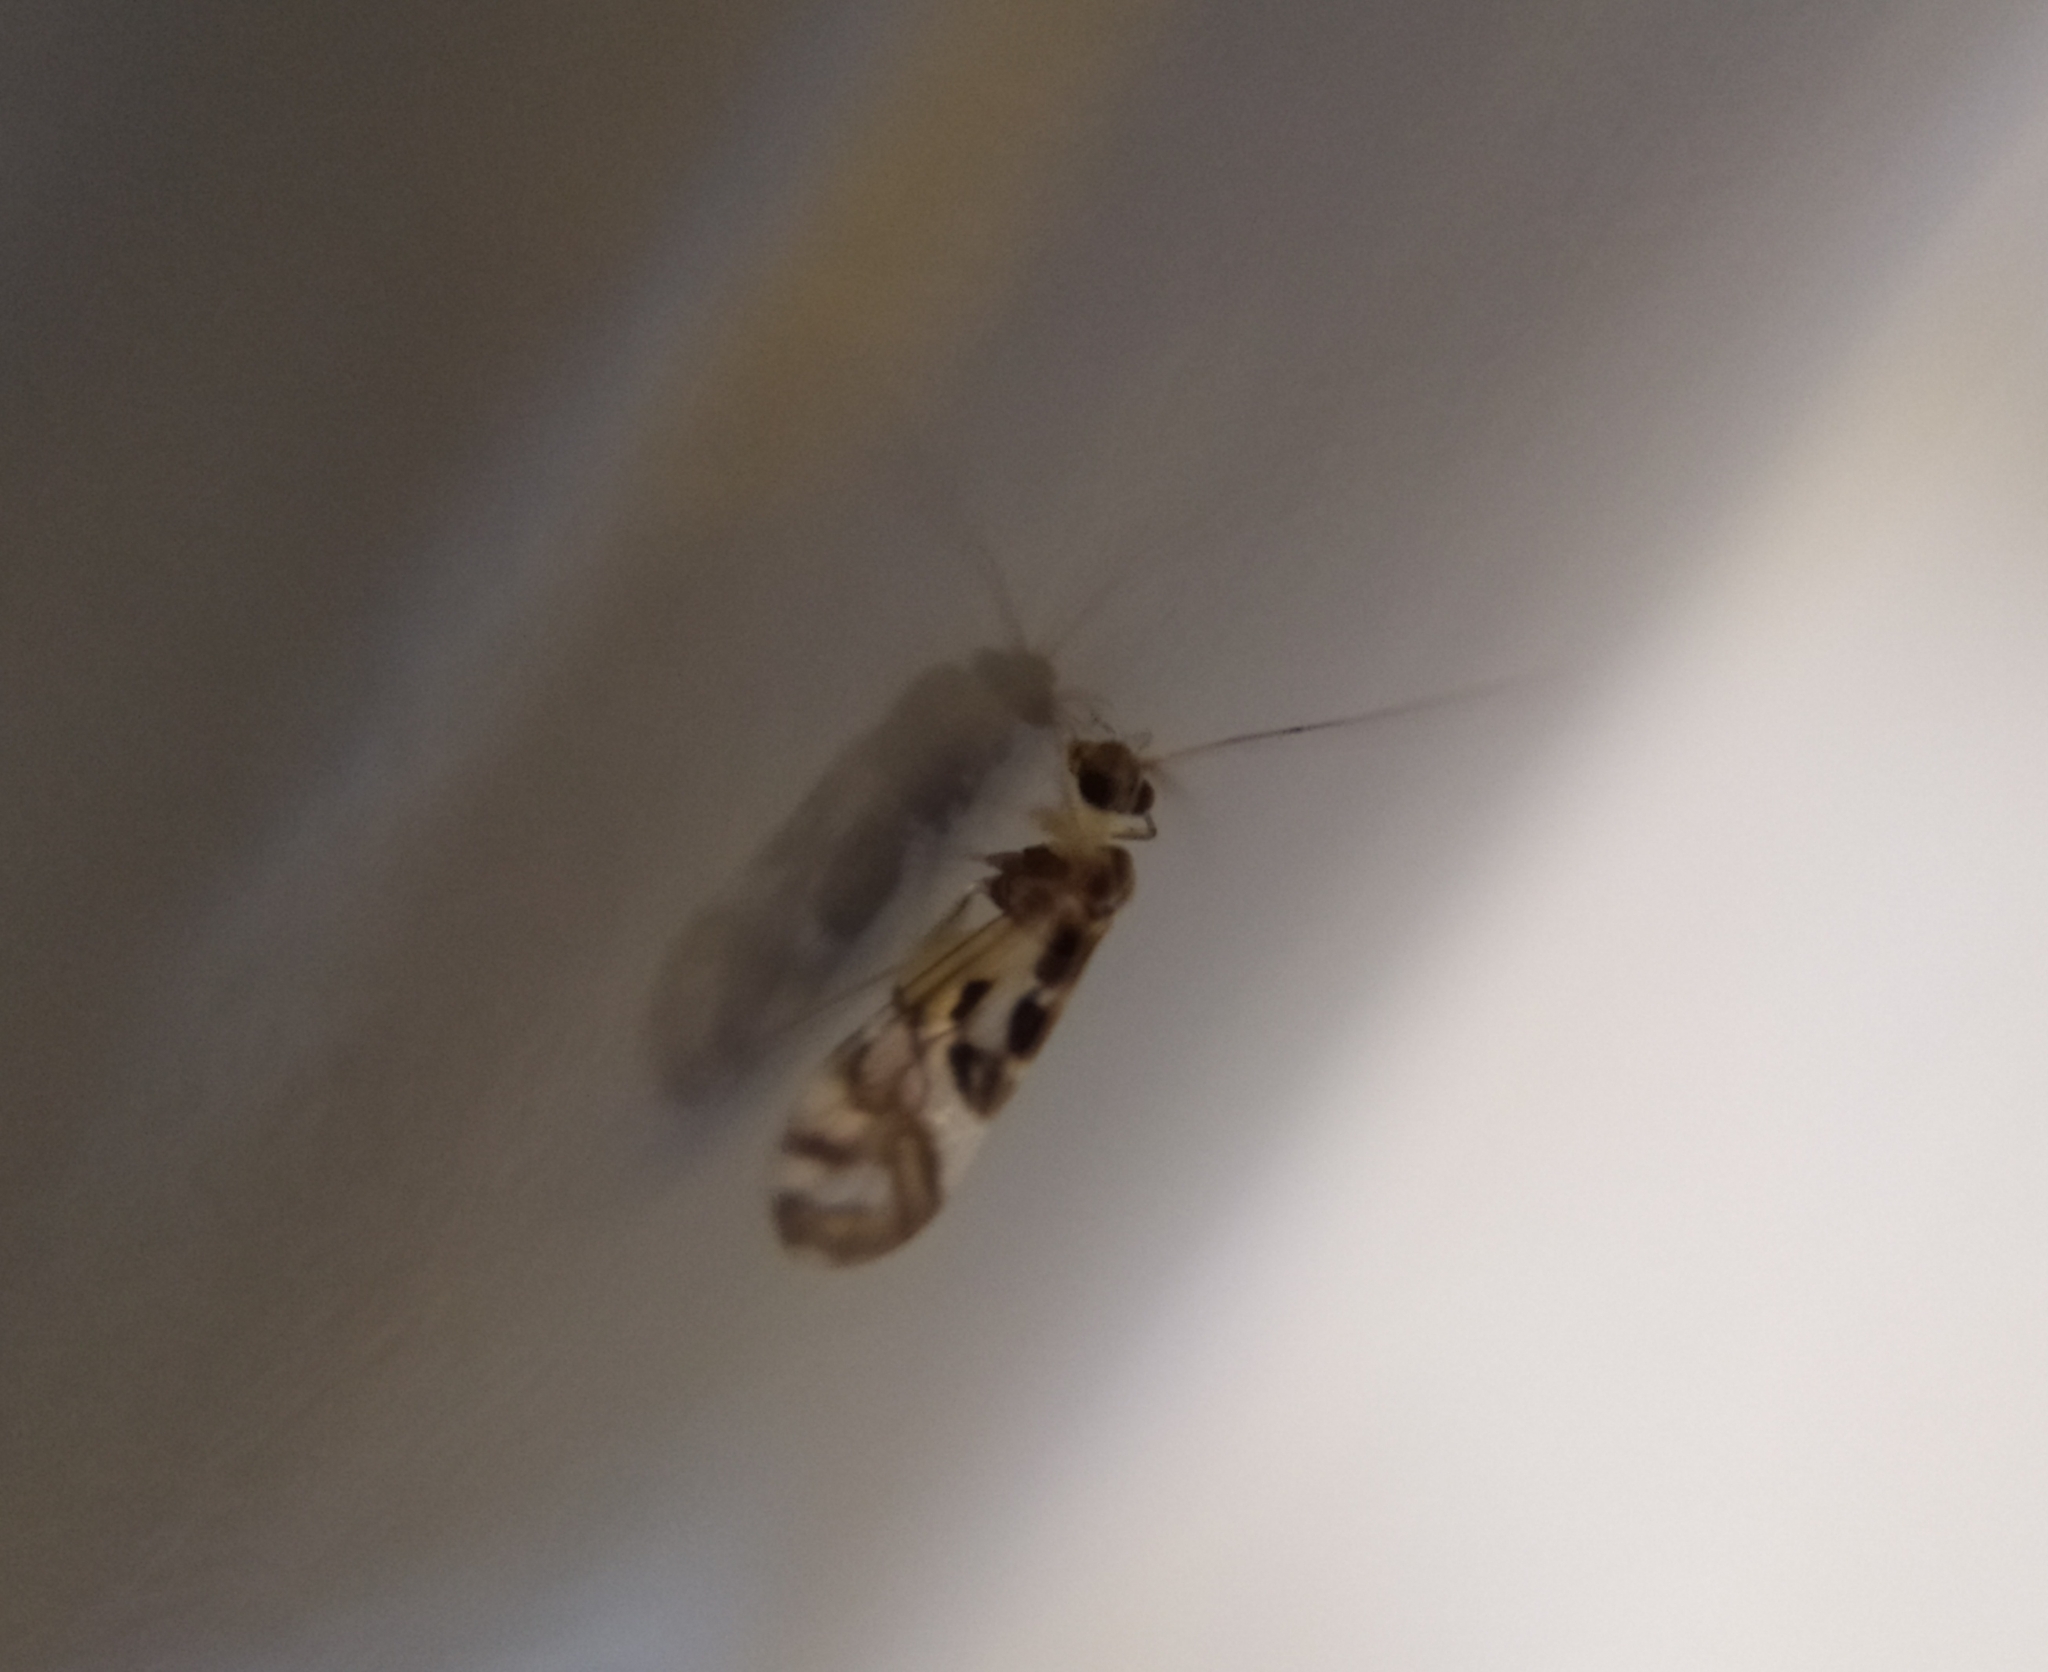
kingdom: Animalia
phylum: Arthropoda
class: Insecta
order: Psocodea
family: Stenopsocidae
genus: Graphopsocus
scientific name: Graphopsocus cruciatus
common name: Lizard bark louse
